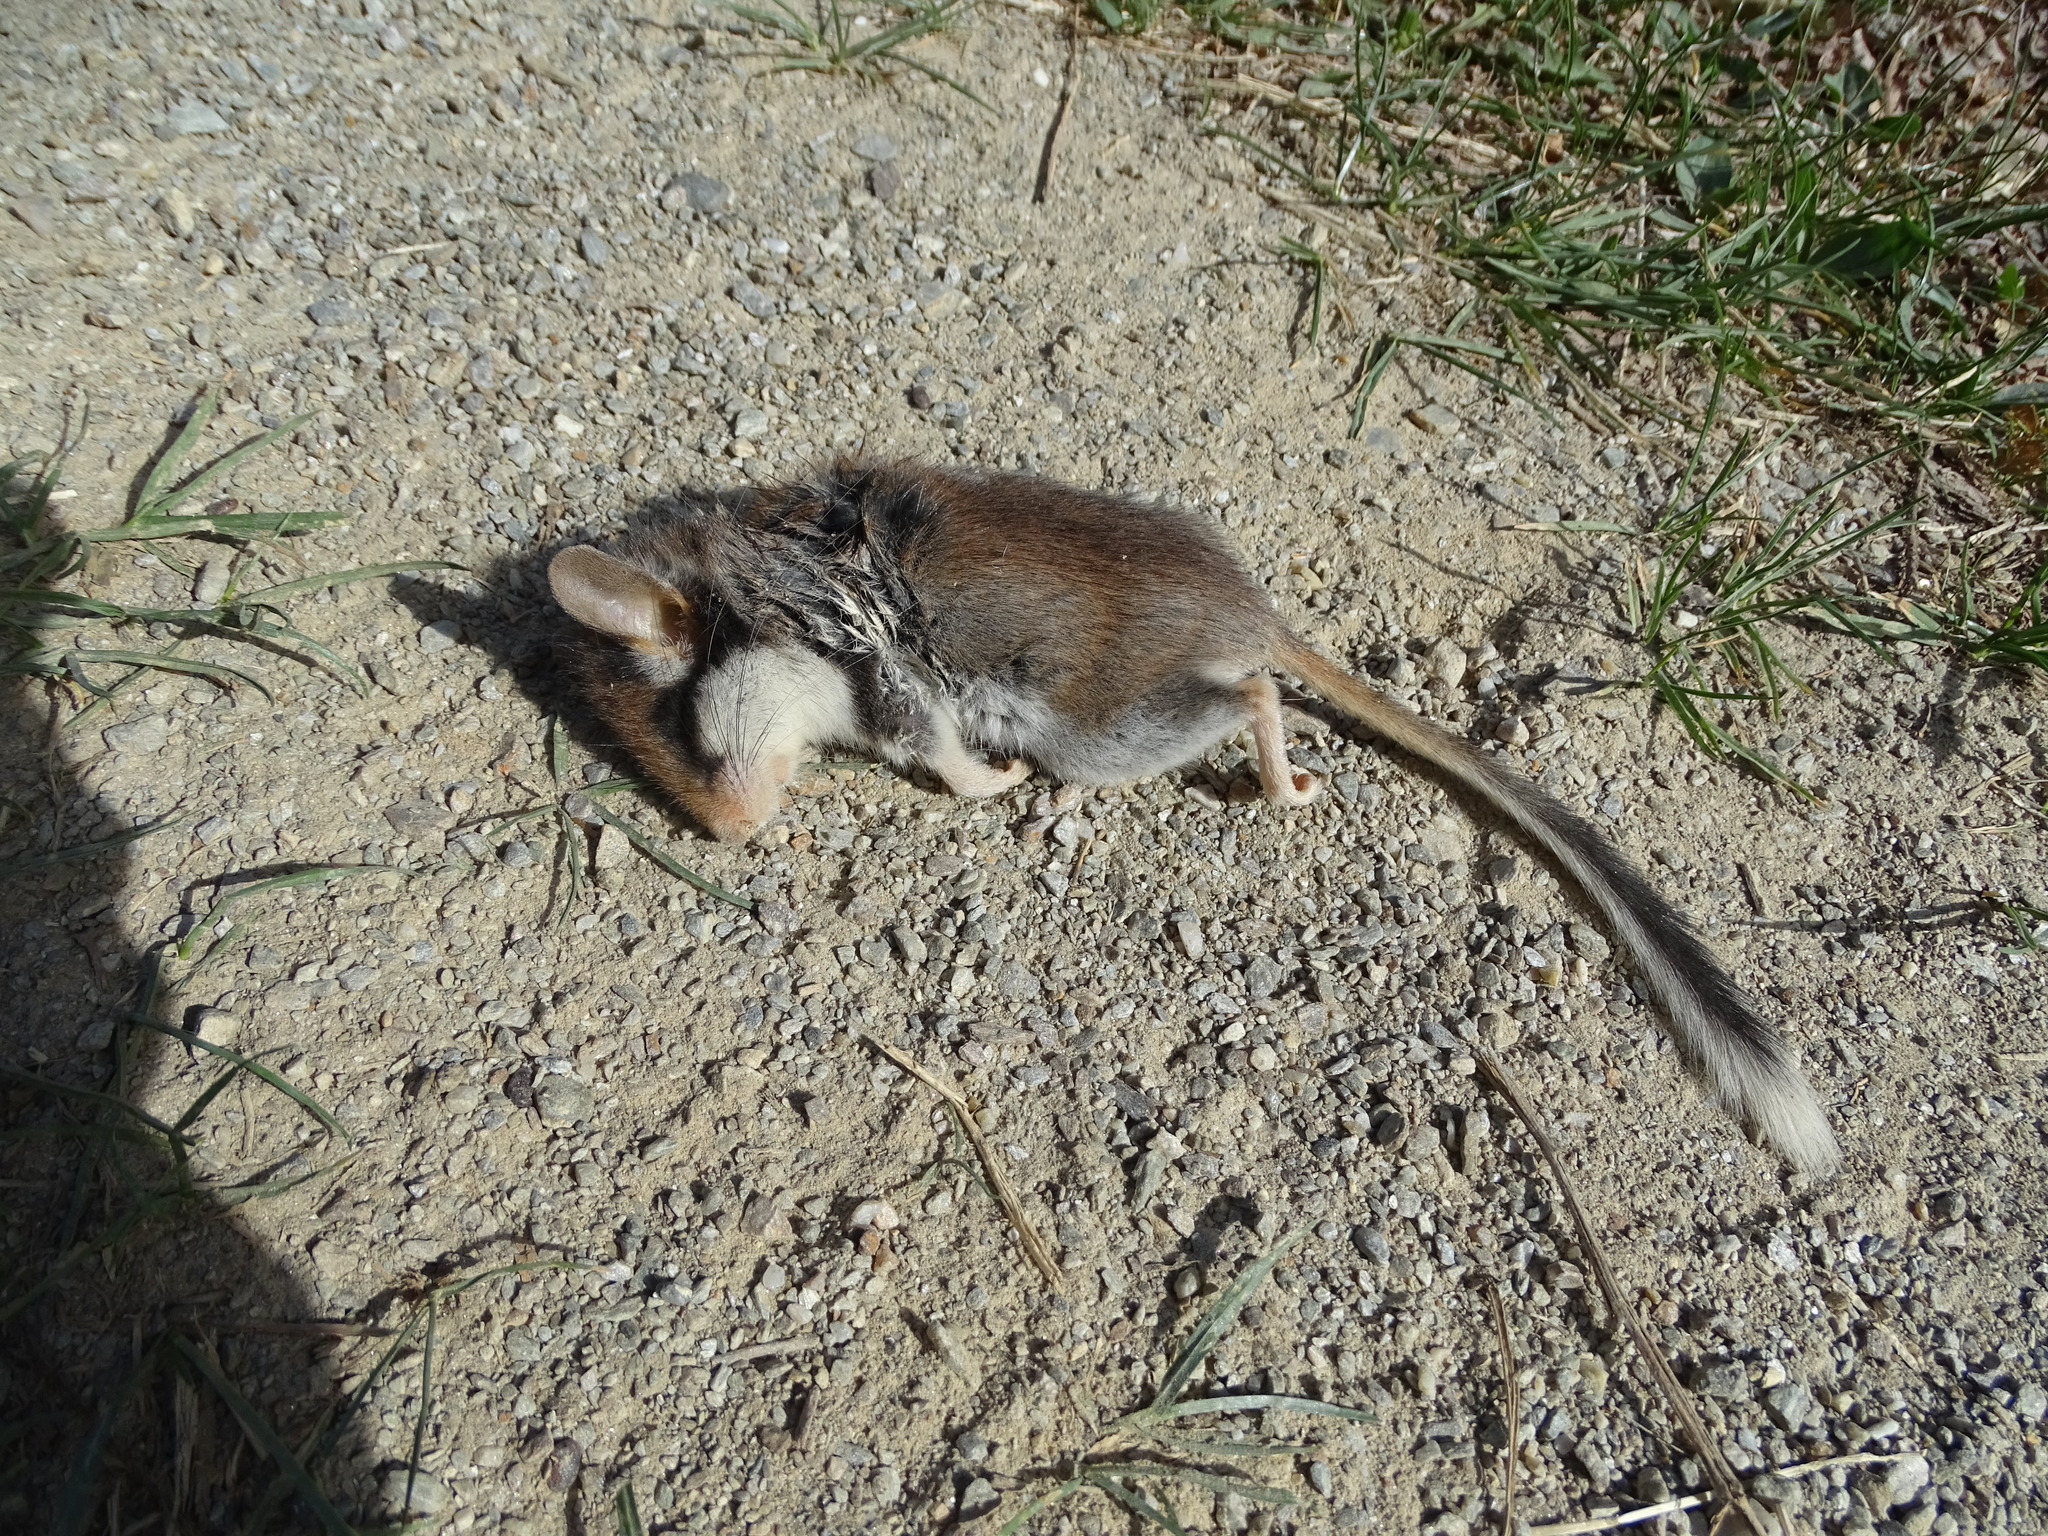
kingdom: Animalia
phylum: Chordata
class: Mammalia
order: Rodentia
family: Gliridae
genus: Eliomys
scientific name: Eliomys quercinus
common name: Garden dormouse
